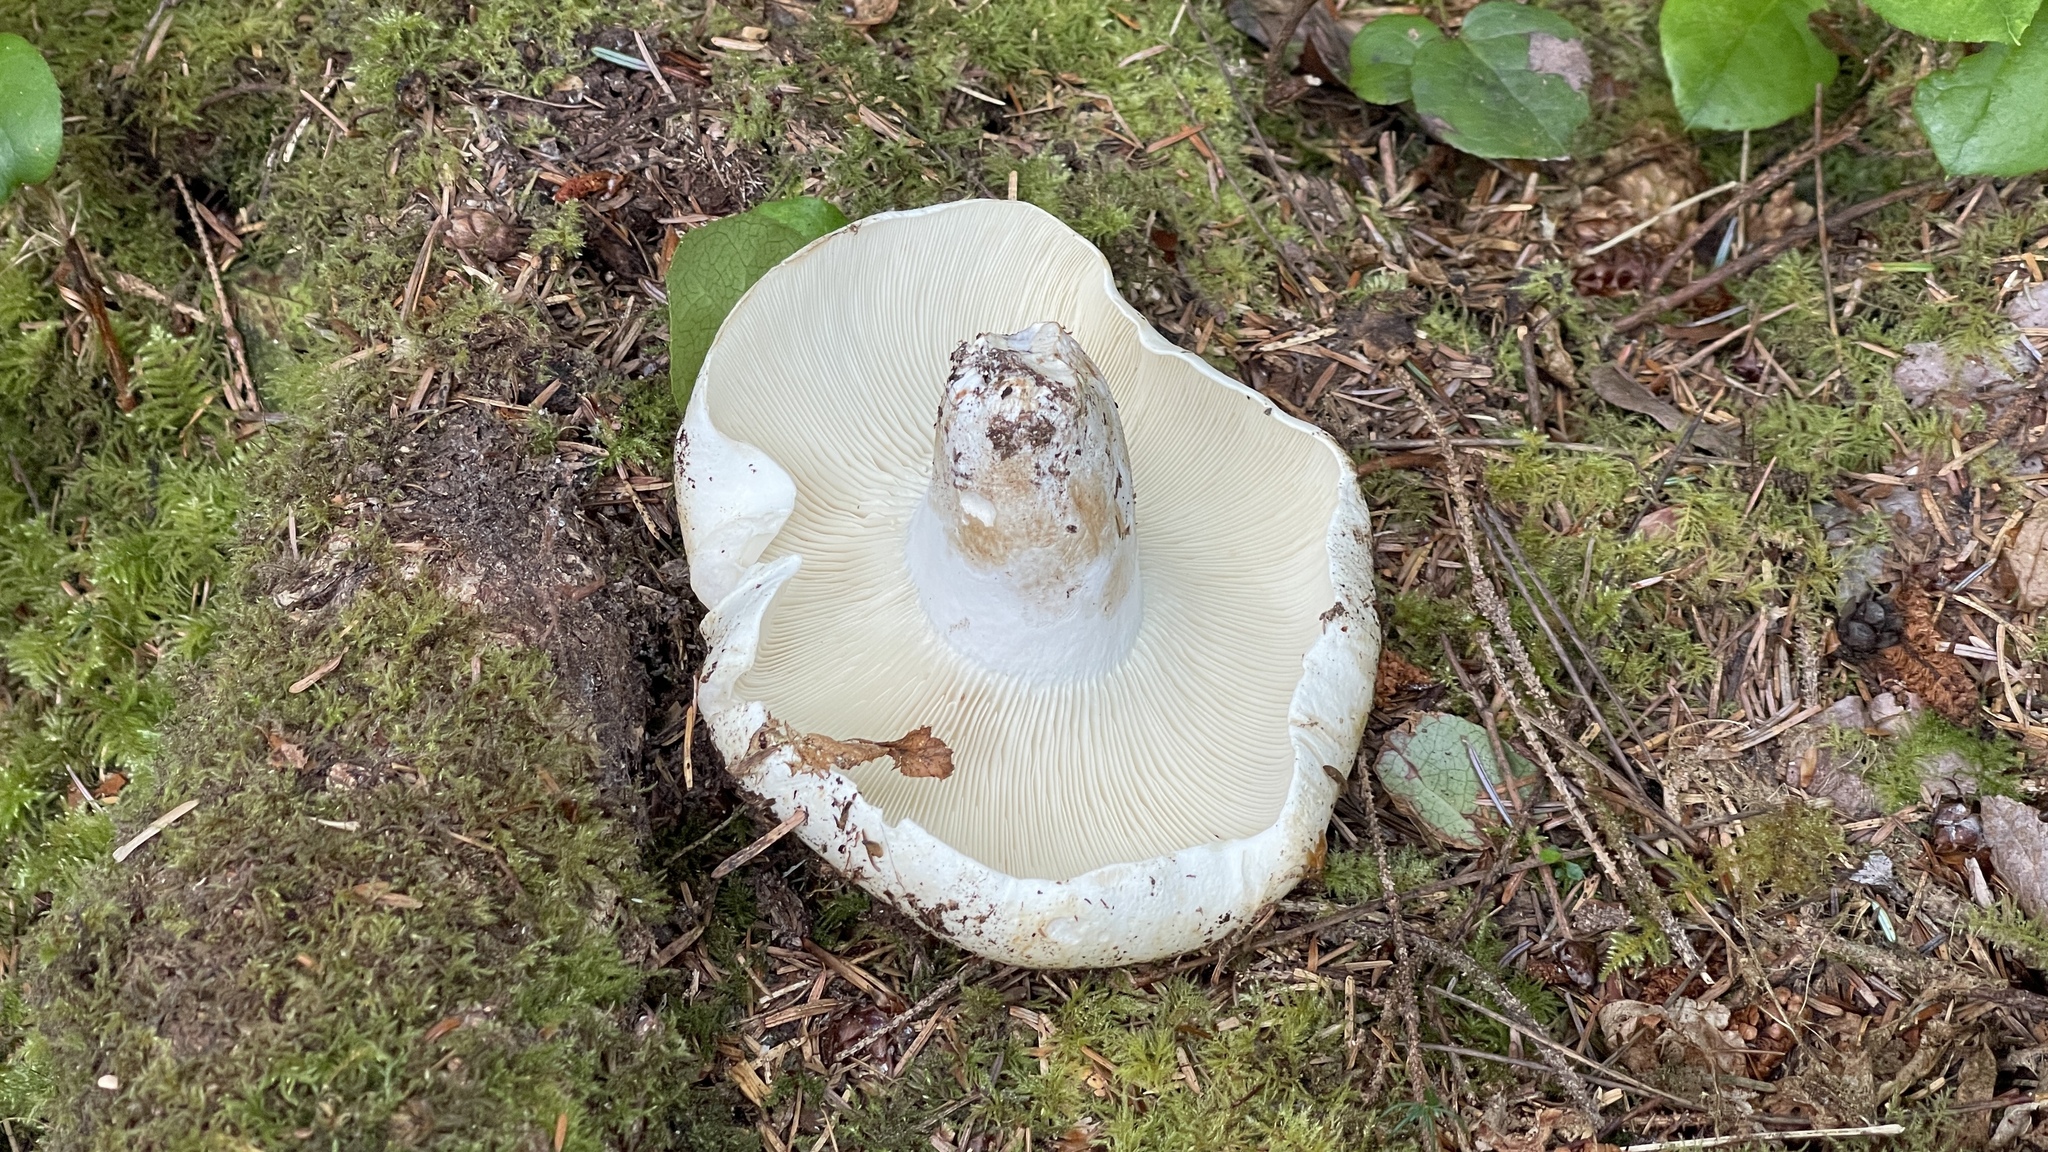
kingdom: Fungi
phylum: Basidiomycota
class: Agaricomycetes
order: Russulales
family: Russulaceae
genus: Russula
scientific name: Russula brevipes
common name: Short-stemmed russula
